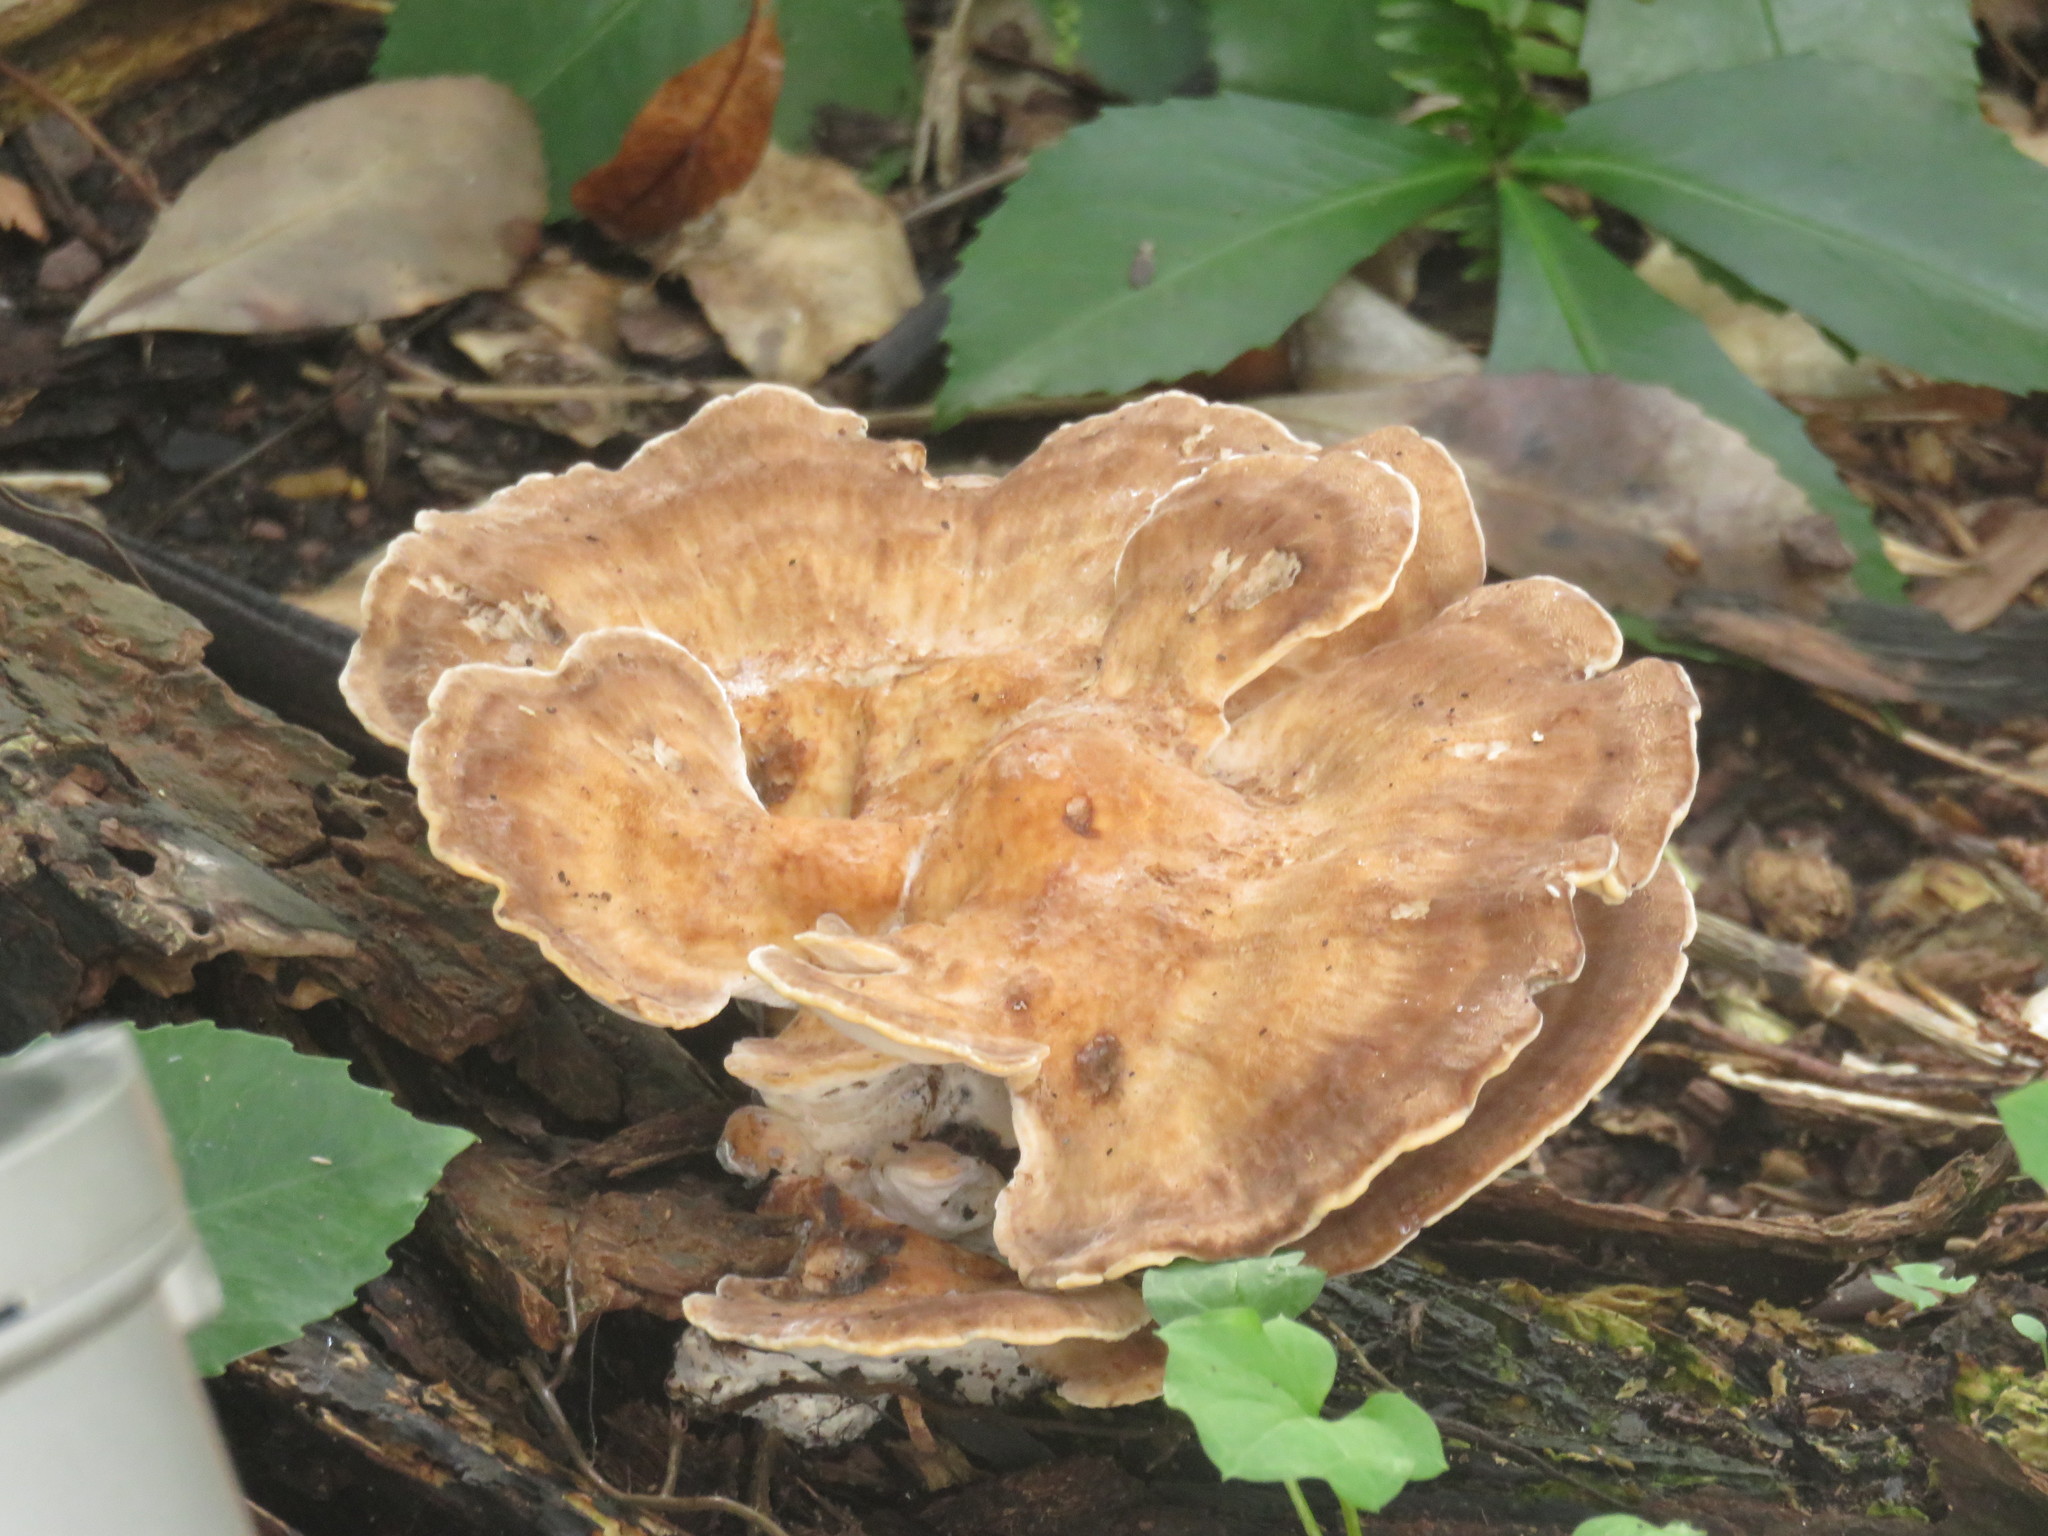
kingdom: Fungi
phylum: Basidiomycota
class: Agaricomycetes
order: Polyporales
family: Meripilaceae
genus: Meripilus
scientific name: Meripilus giganteus
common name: Giant polypore
